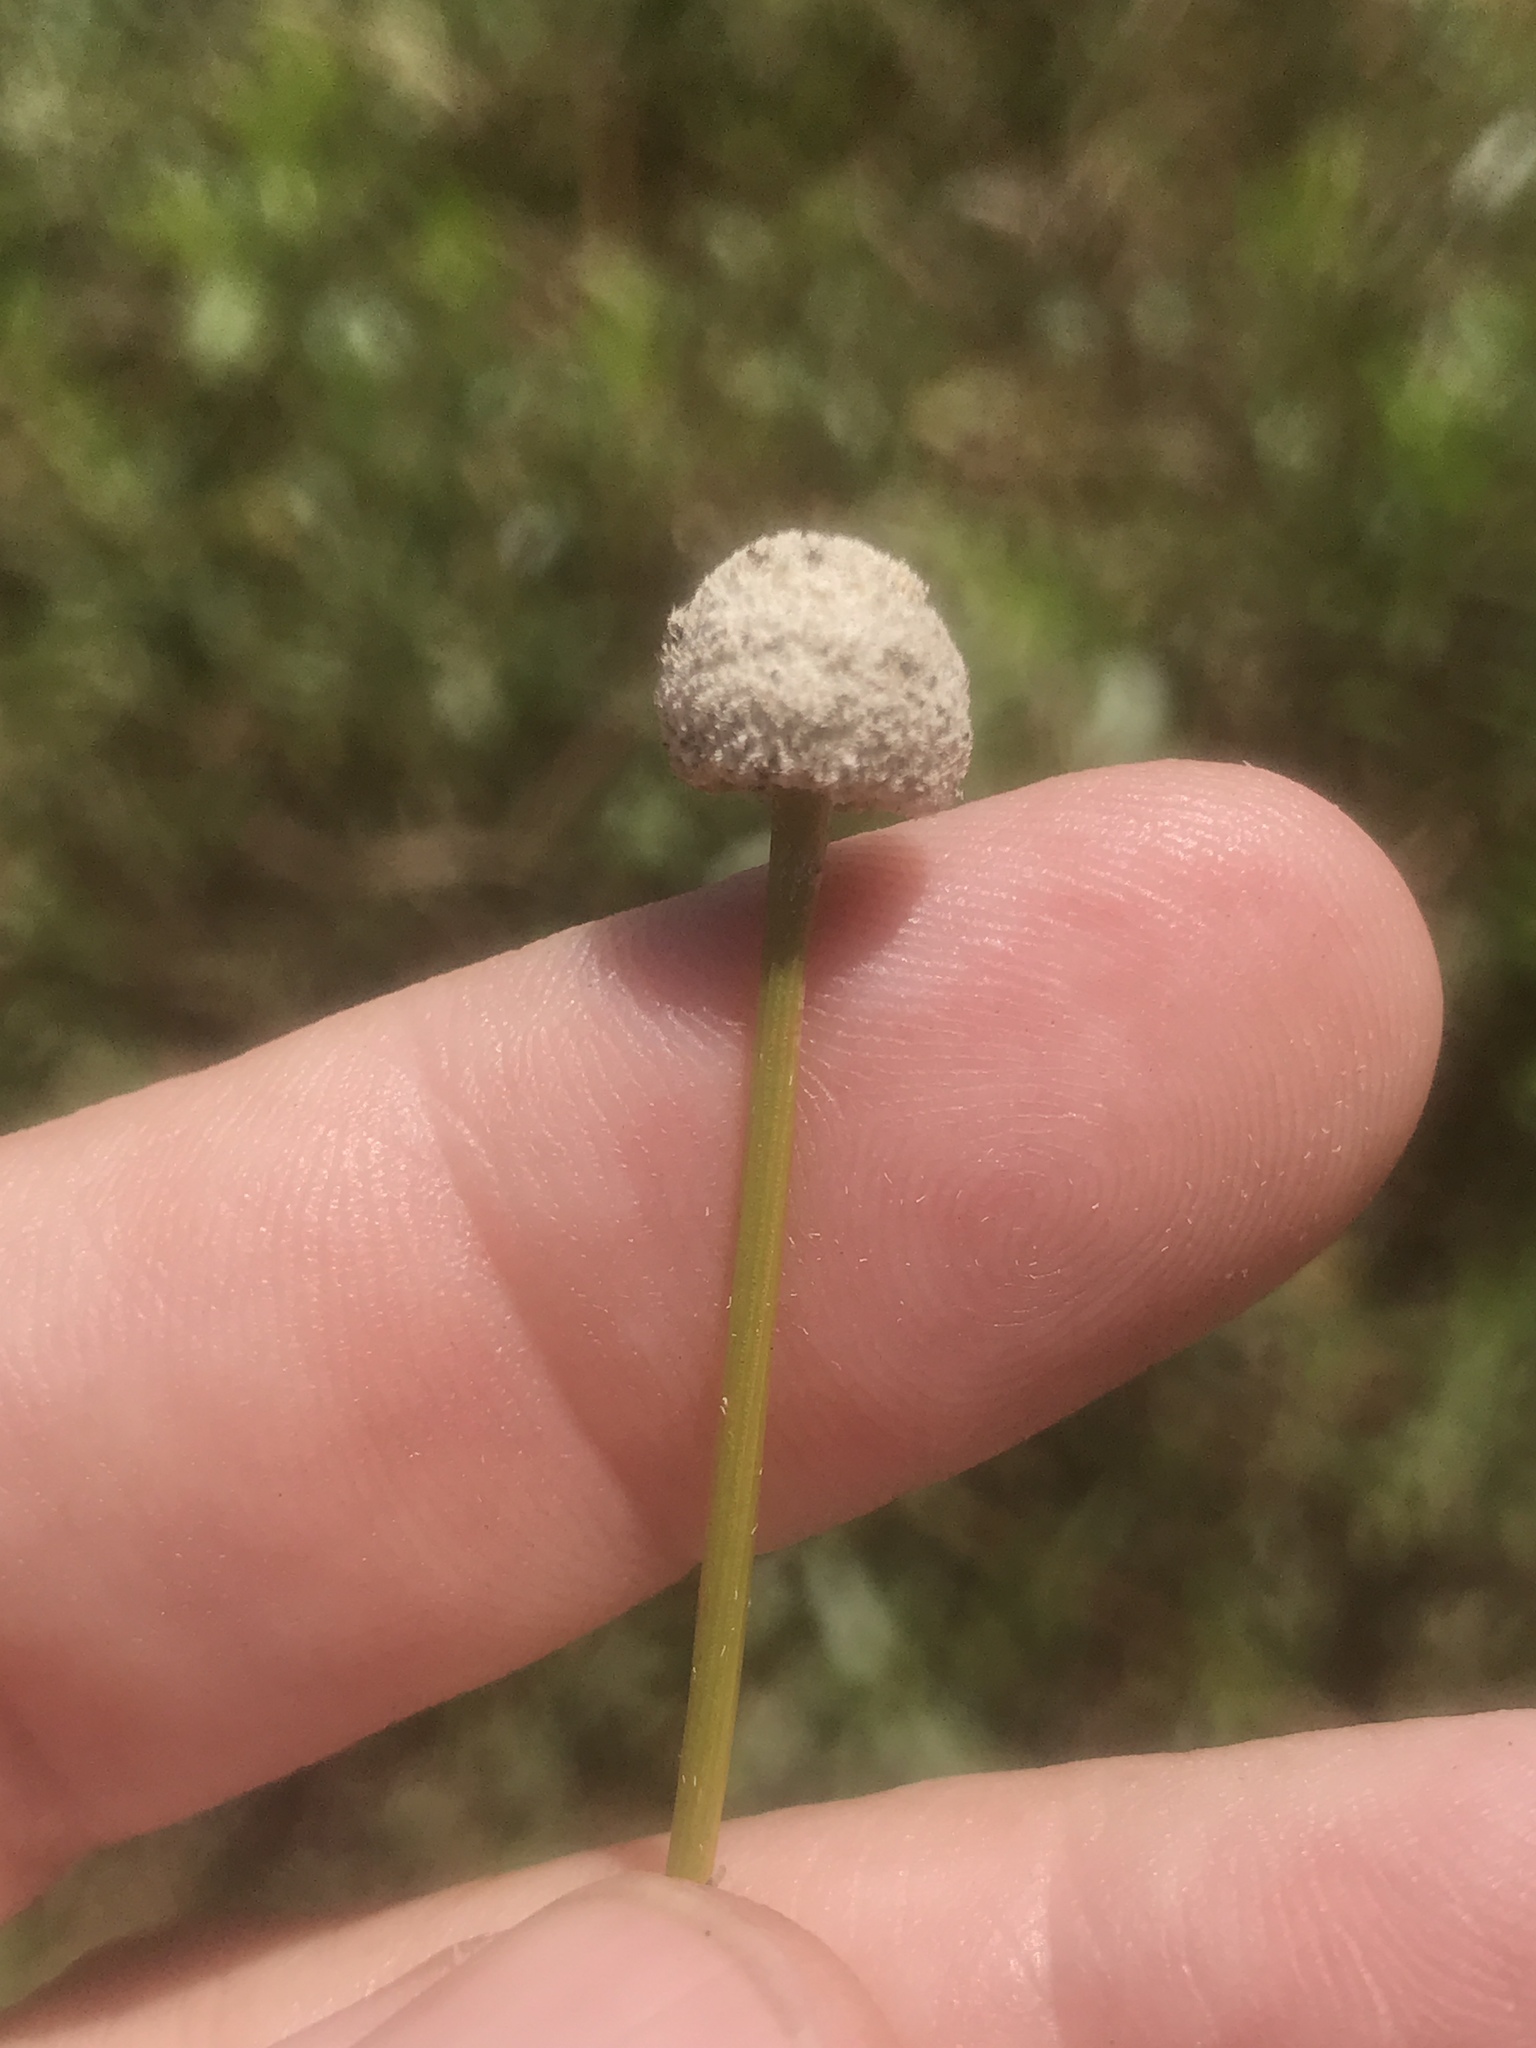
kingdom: Plantae
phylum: Tracheophyta
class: Liliopsida
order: Poales
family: Eriocaulaceae
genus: Eriocaulon
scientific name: Eriocaulon decangulare
